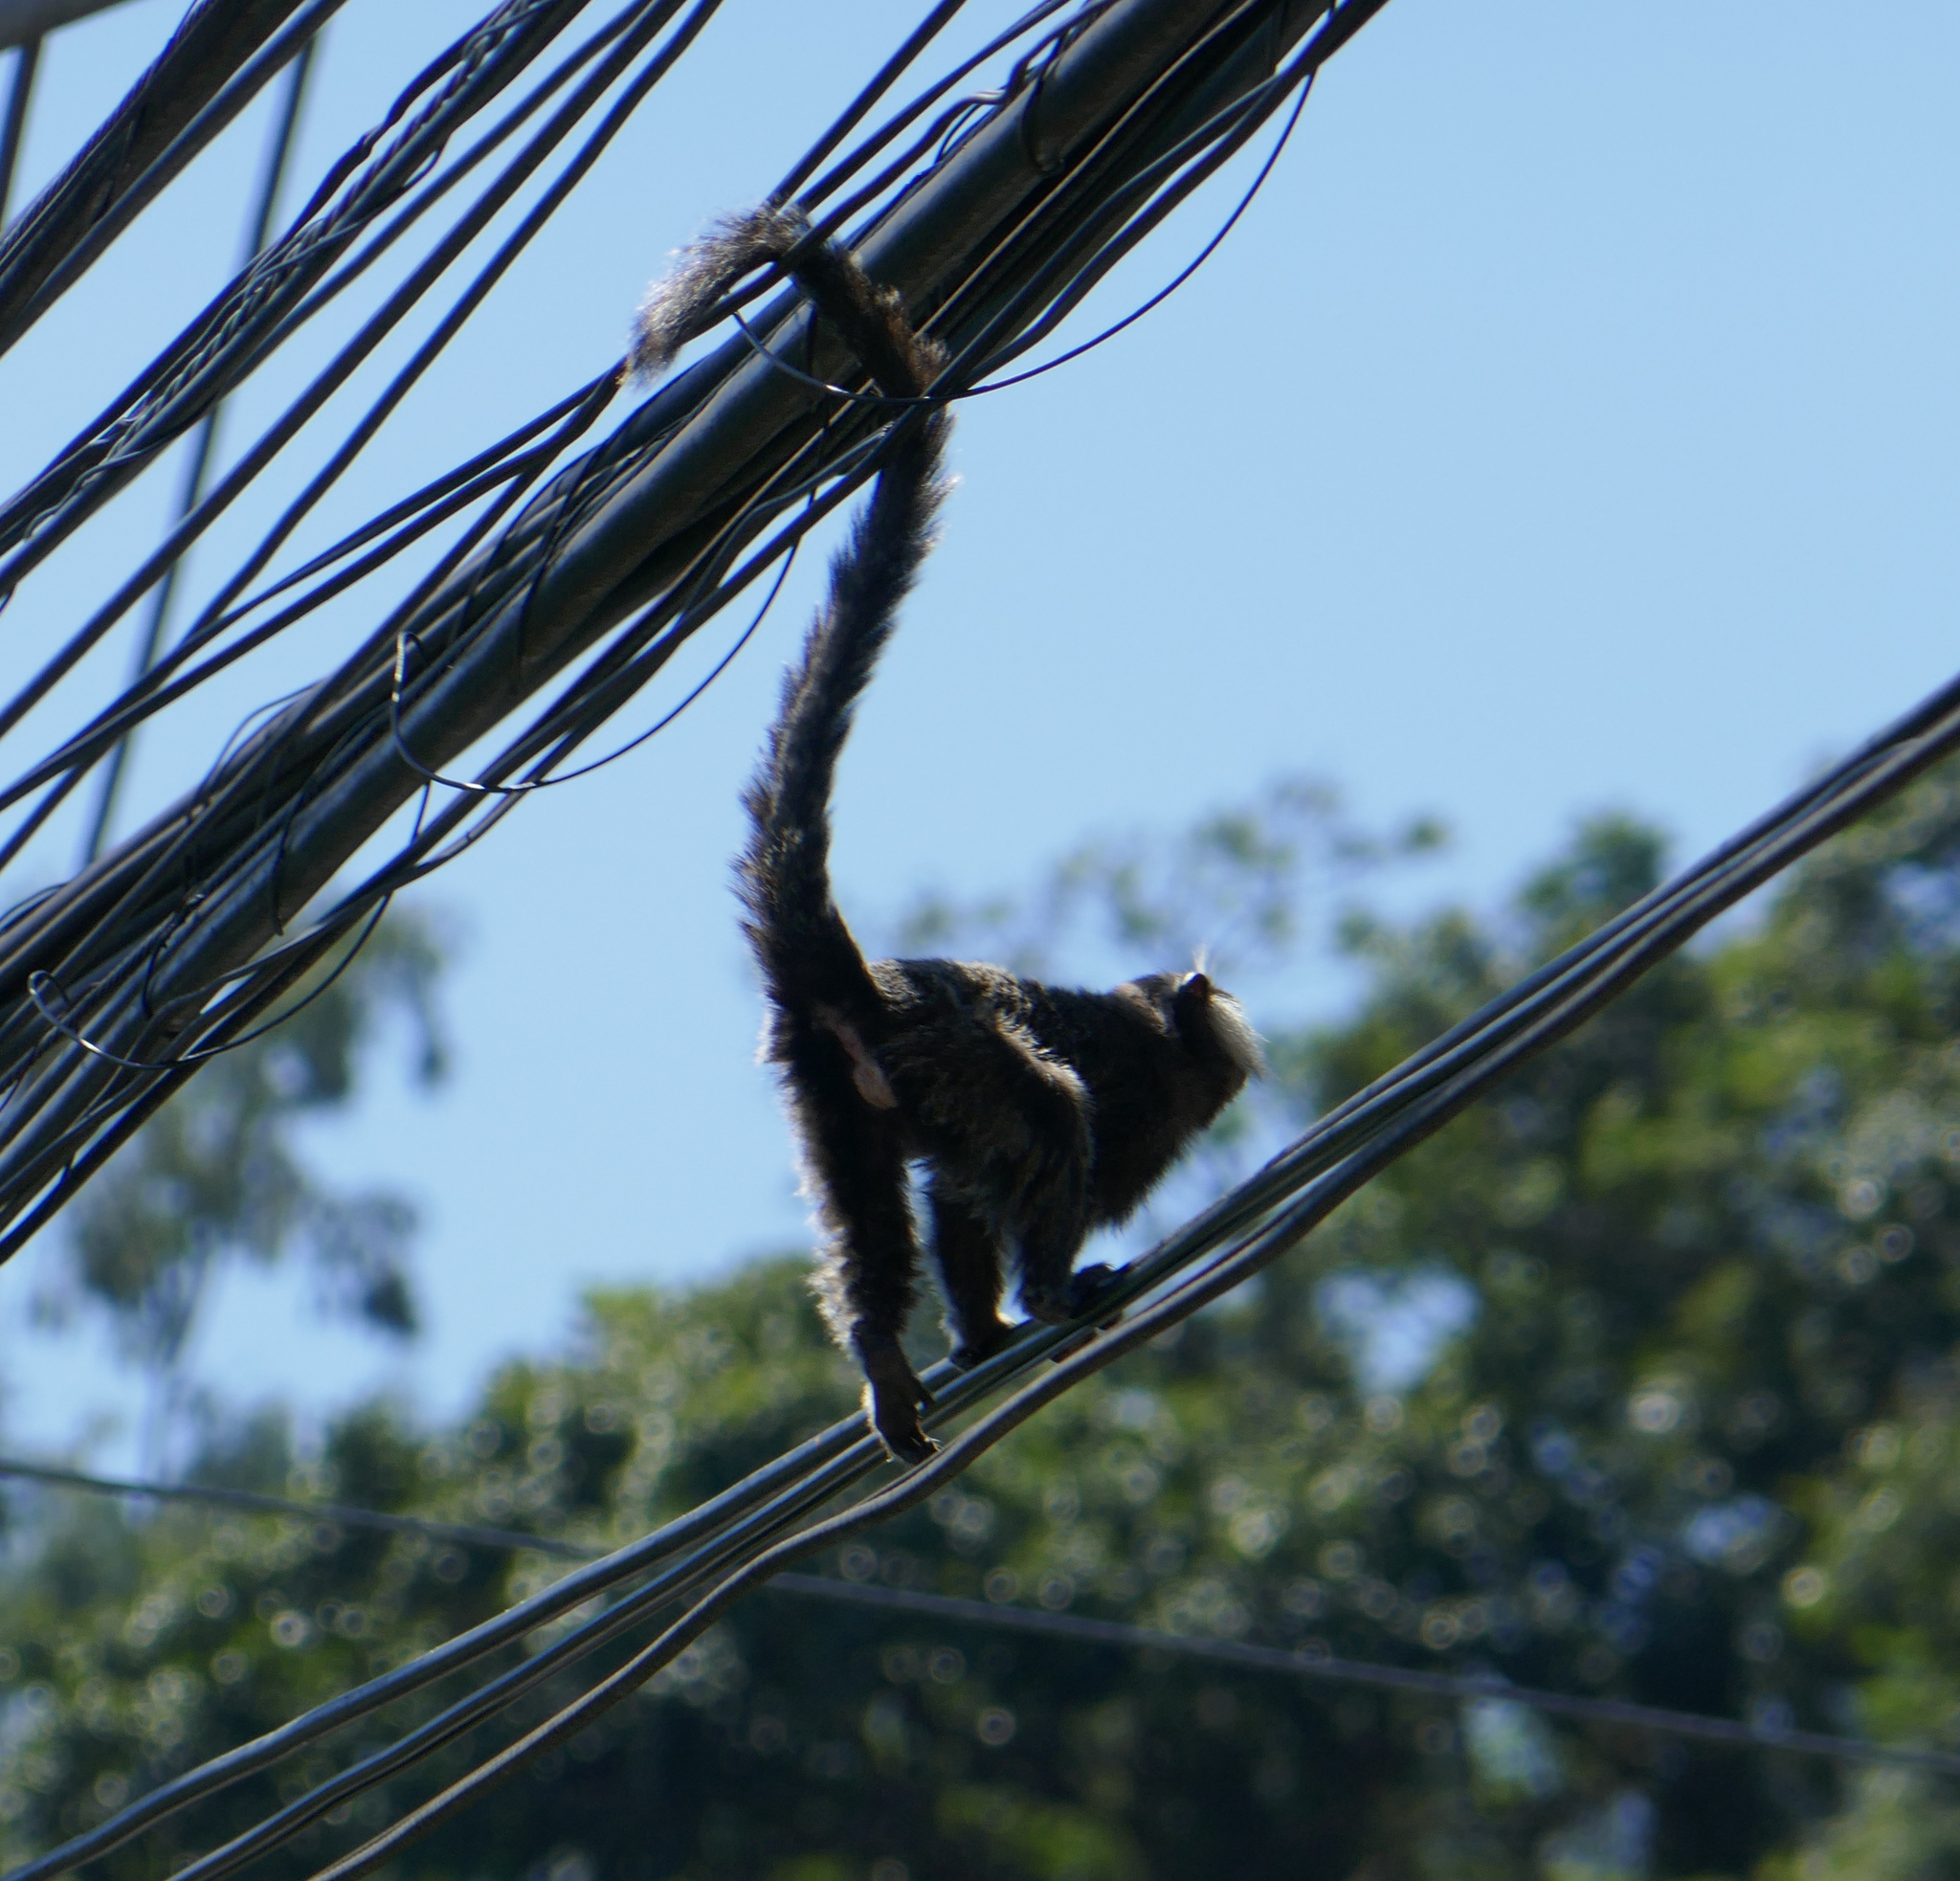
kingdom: Animalia
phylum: Chordata
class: Mammalia
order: Primates
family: Callitrichidae
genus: Callithrix
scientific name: Callithrix penicillata
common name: Black-tufted marmoset
